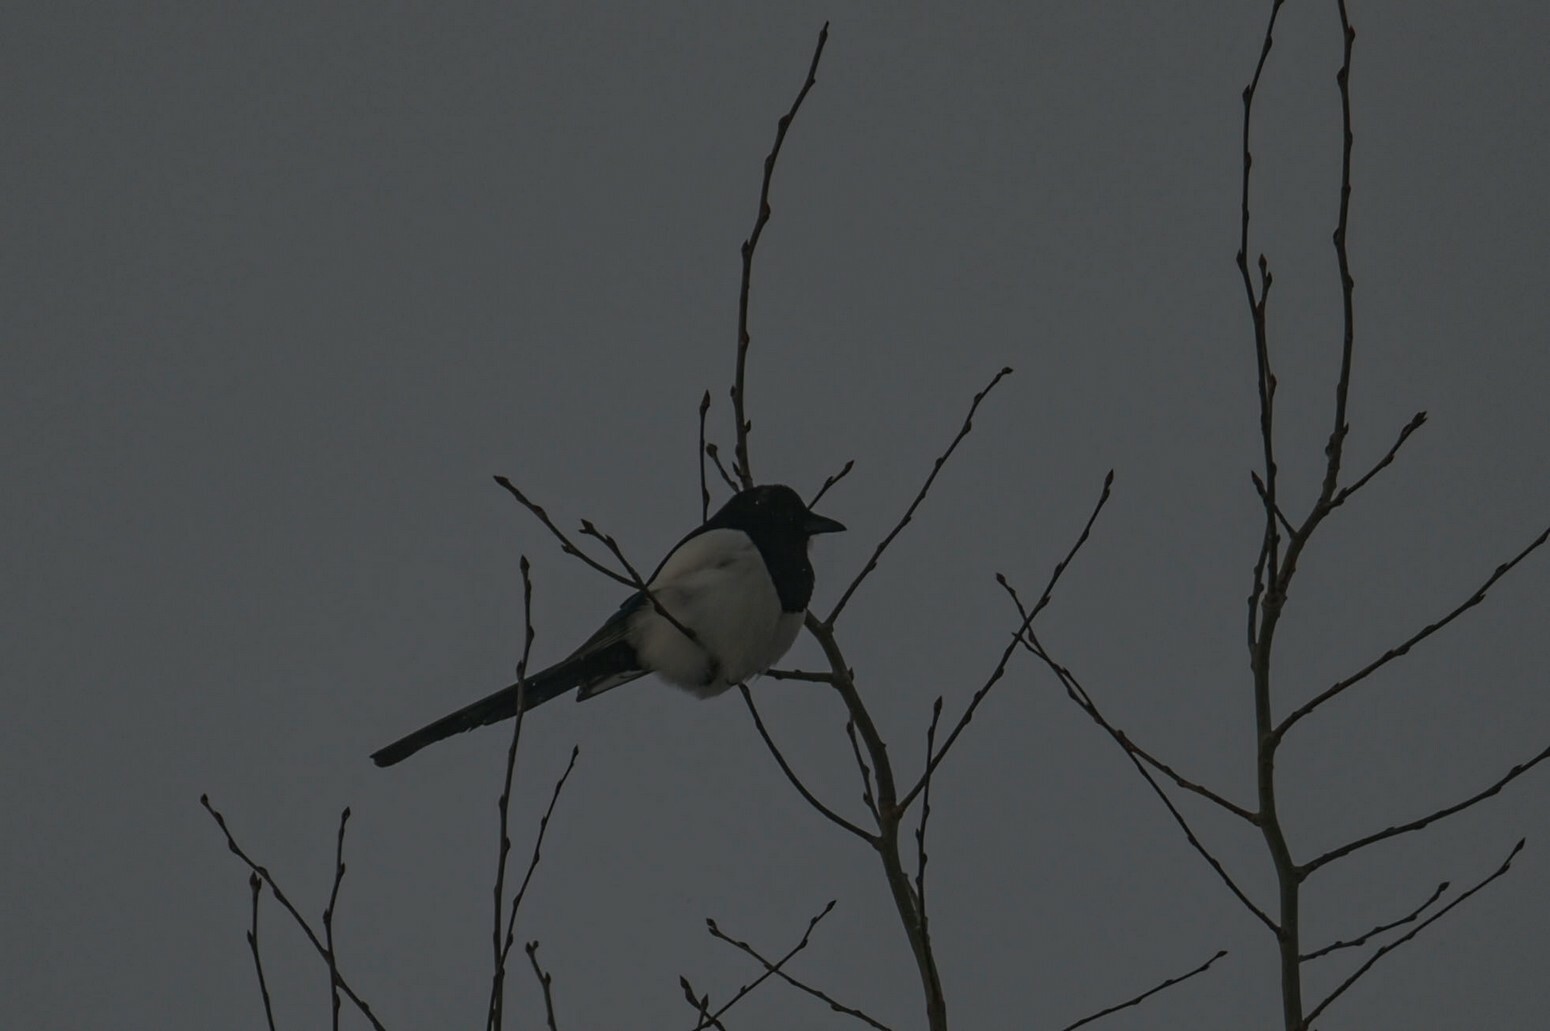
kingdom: Animalia
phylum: Chordata
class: Aves
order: Passeriformes
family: Corvidae
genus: Pica
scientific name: Pica pica
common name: Eurasian magpie
